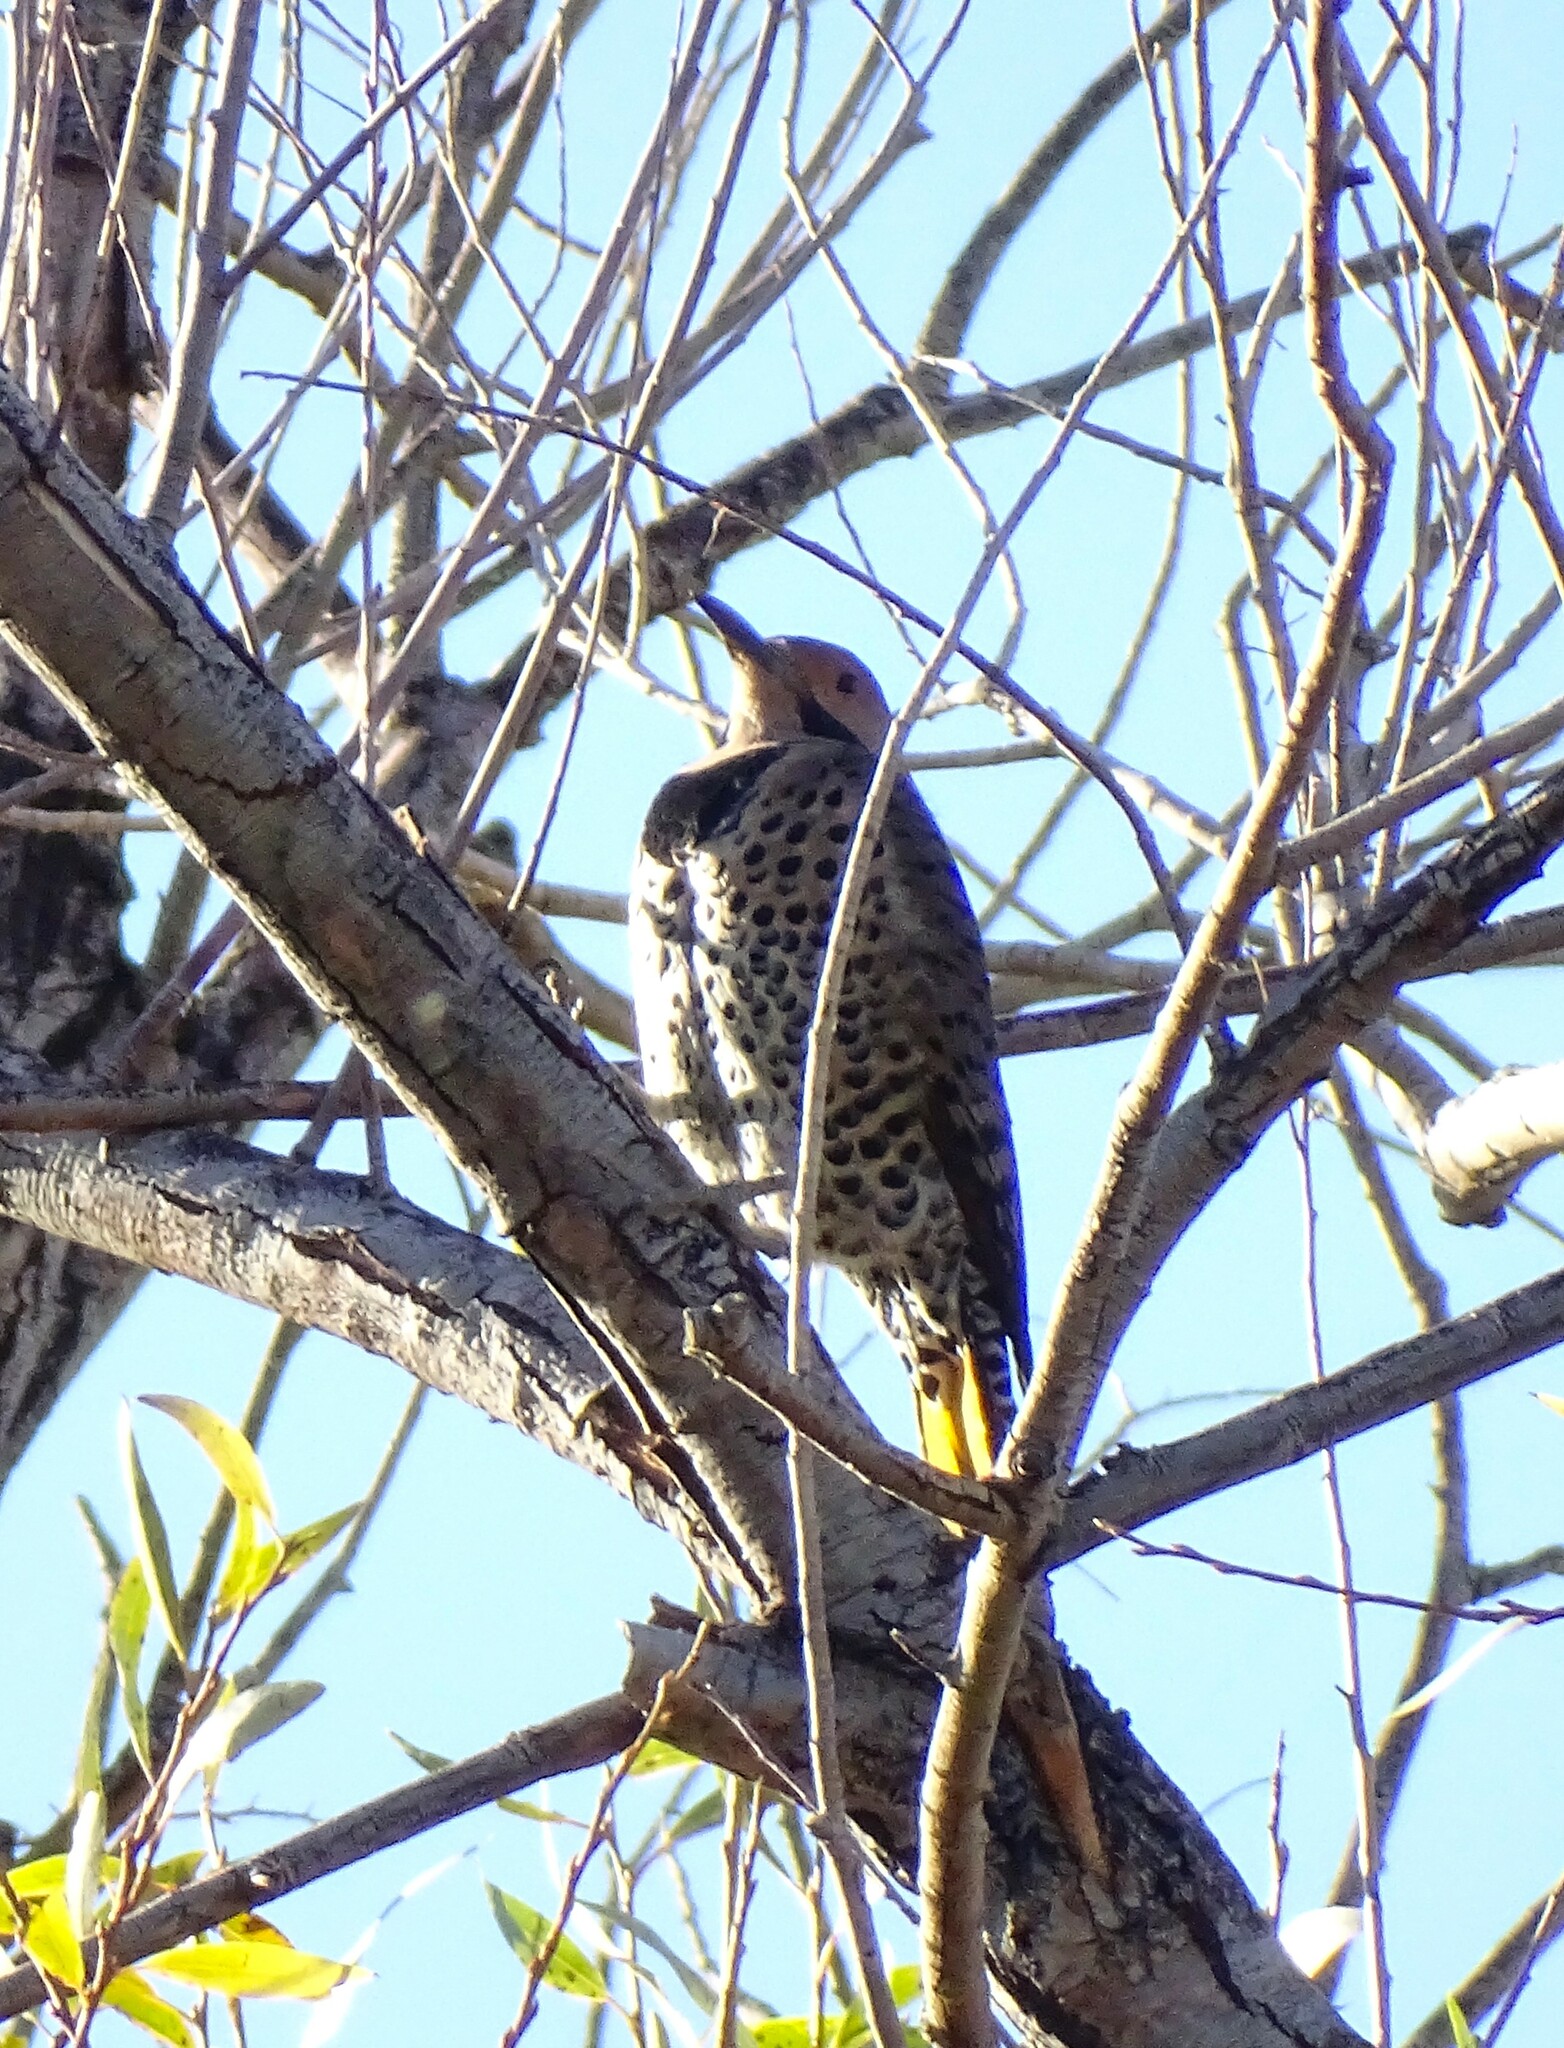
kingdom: Animalia
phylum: Chordata
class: Aves
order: Piciformes
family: Picidae
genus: Colaptes
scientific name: Colaptes auratus
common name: Northern flicker
